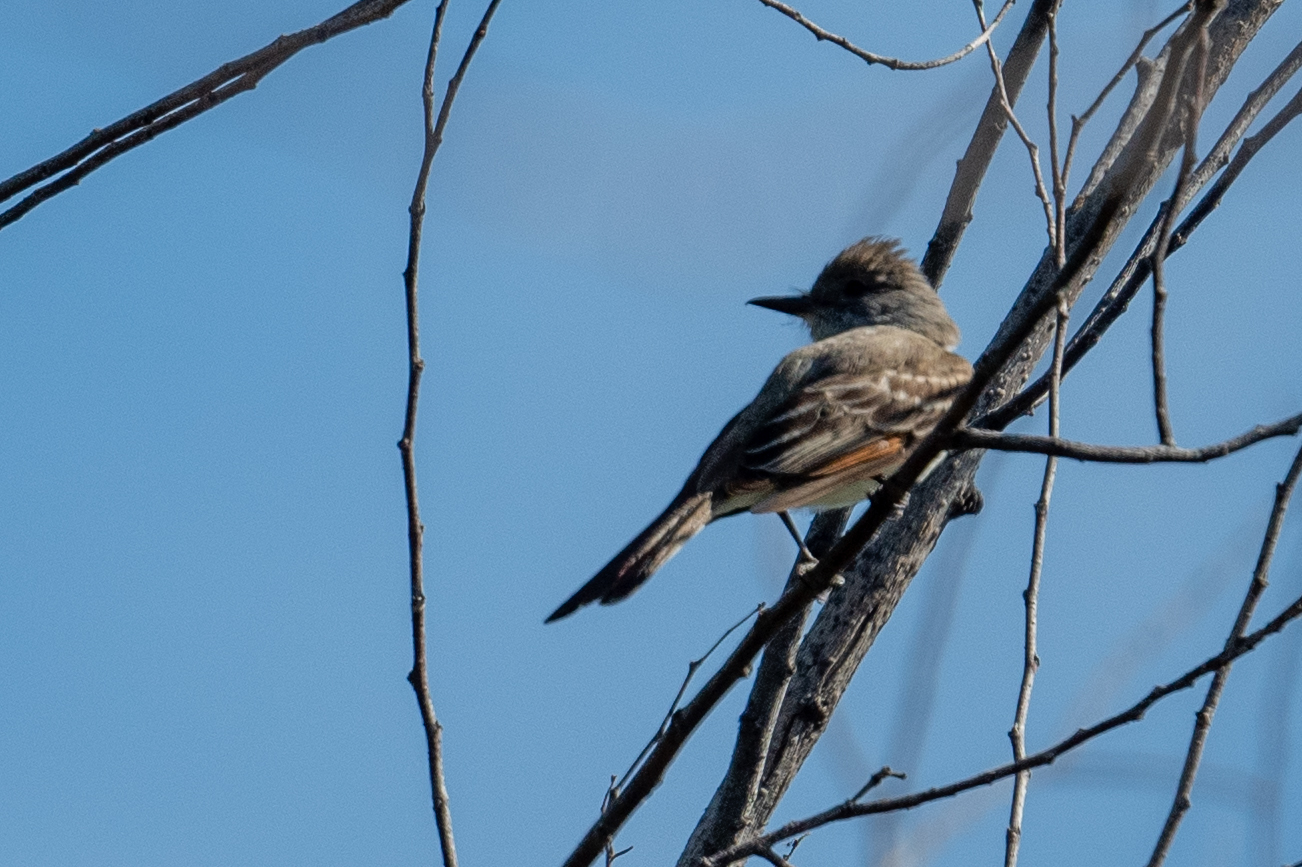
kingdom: Animalia
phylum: Chordata
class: Aves
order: Passeriformes
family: Tyrannidae
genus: Myiarchus
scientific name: Myiarchus cinerascens
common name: Ash-throated flycatcher
